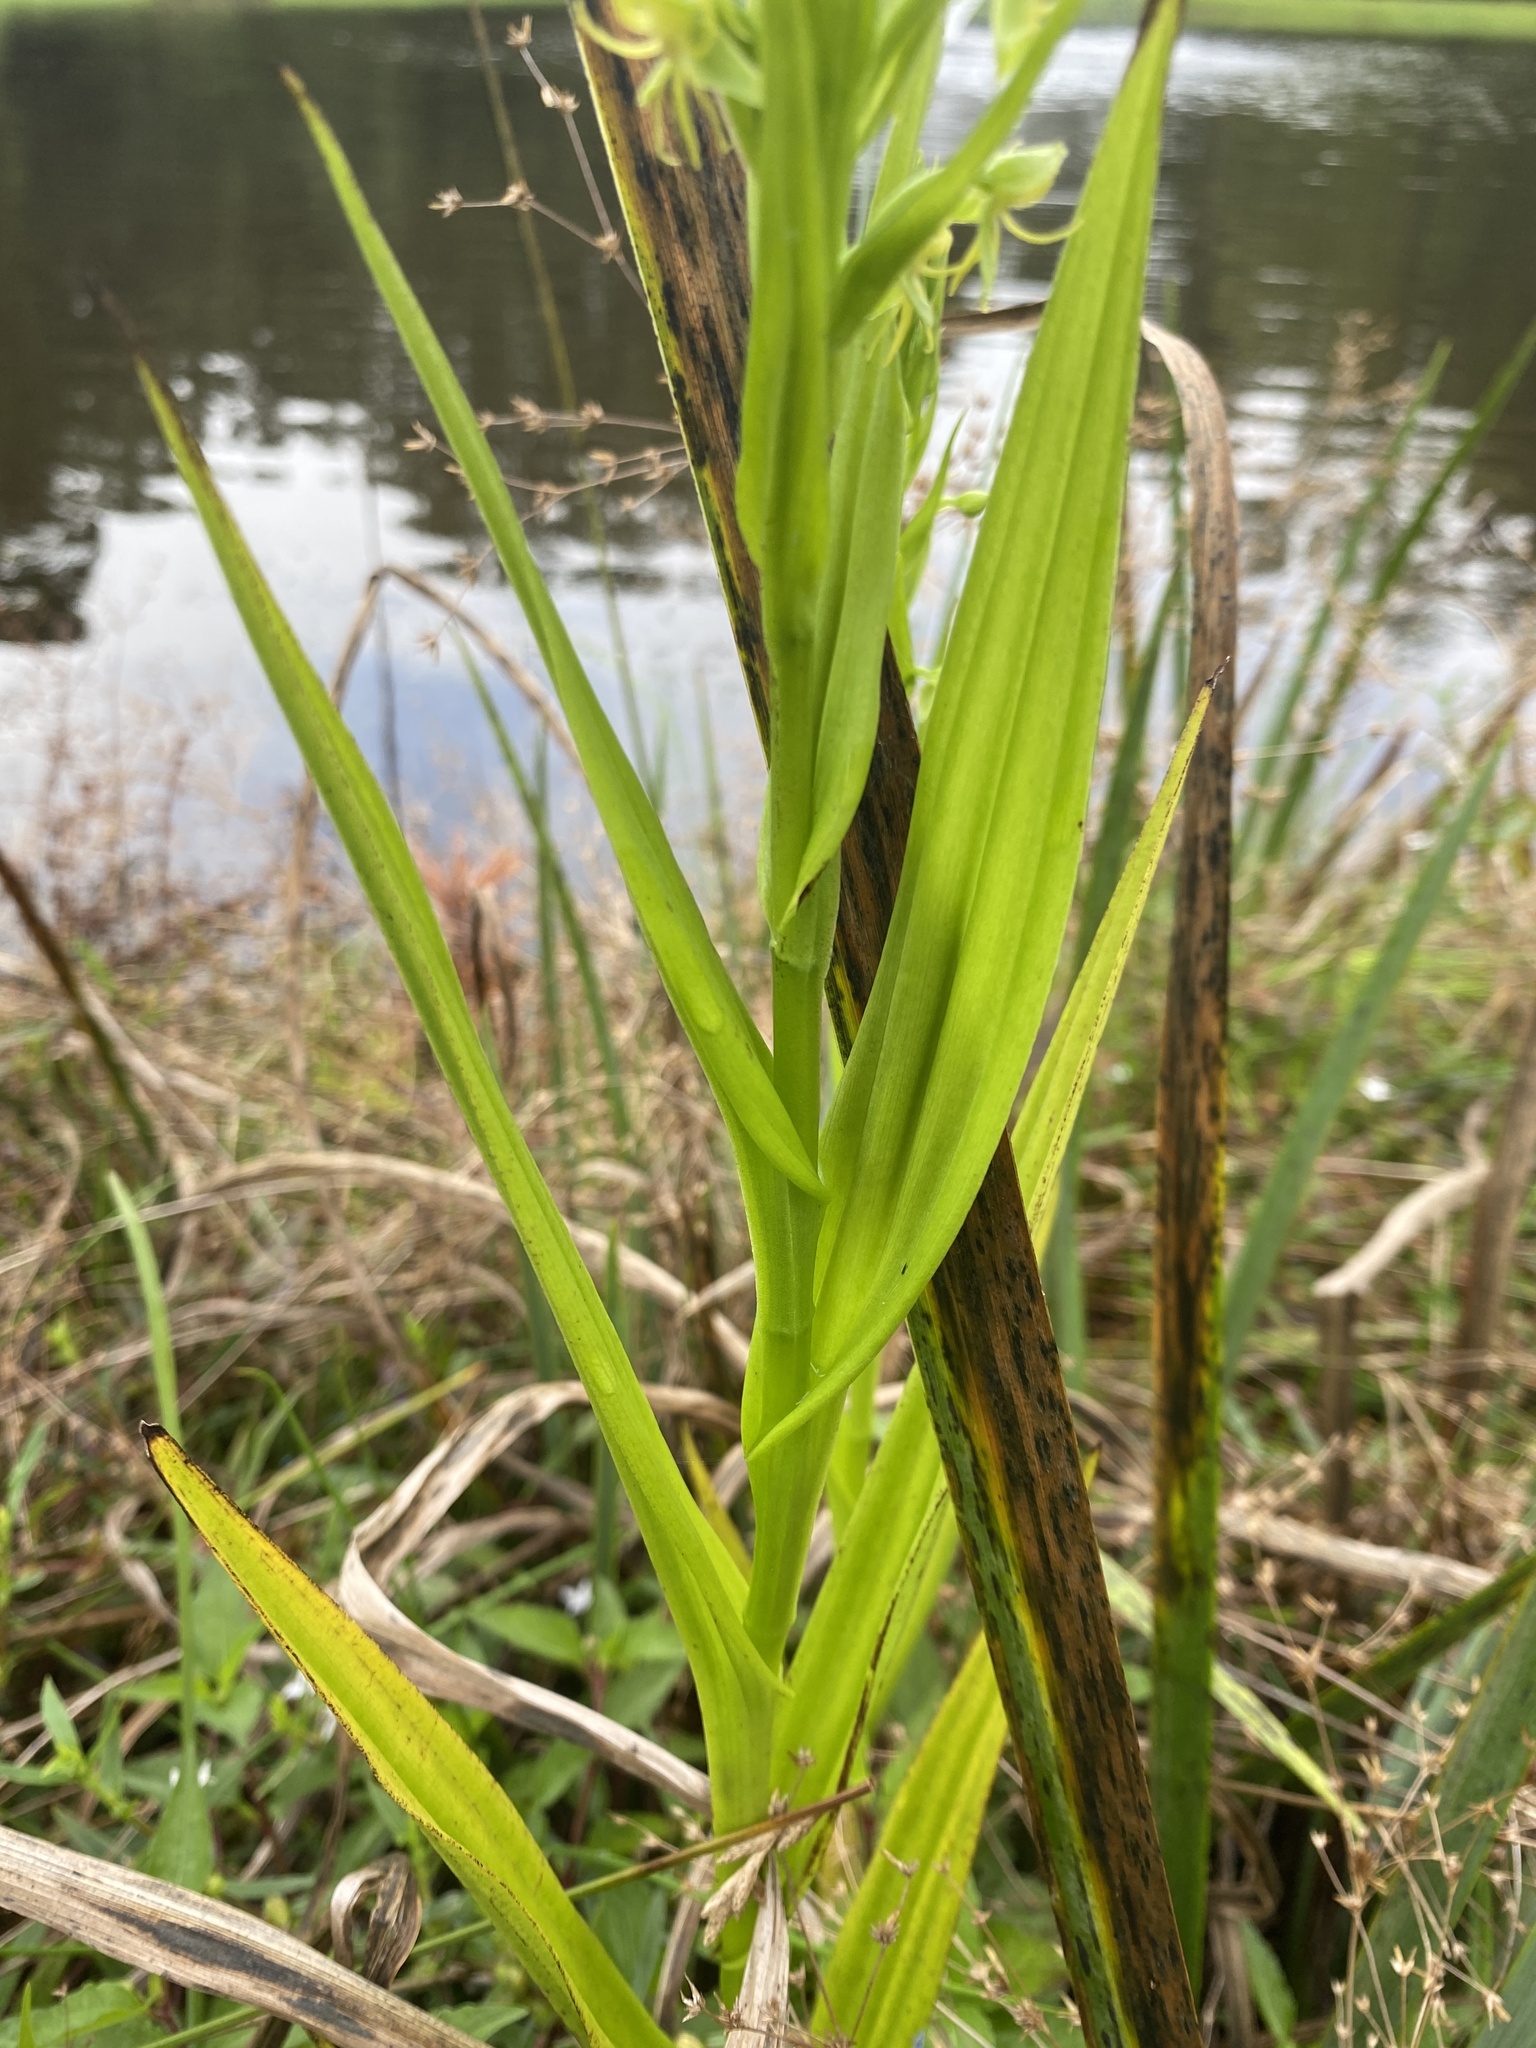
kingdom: Plantae
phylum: Tracheophyta
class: Liliopsida
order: Asparagales
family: Orchidaceae
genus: Habenaria
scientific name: Habenaria repens
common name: Water orchid
